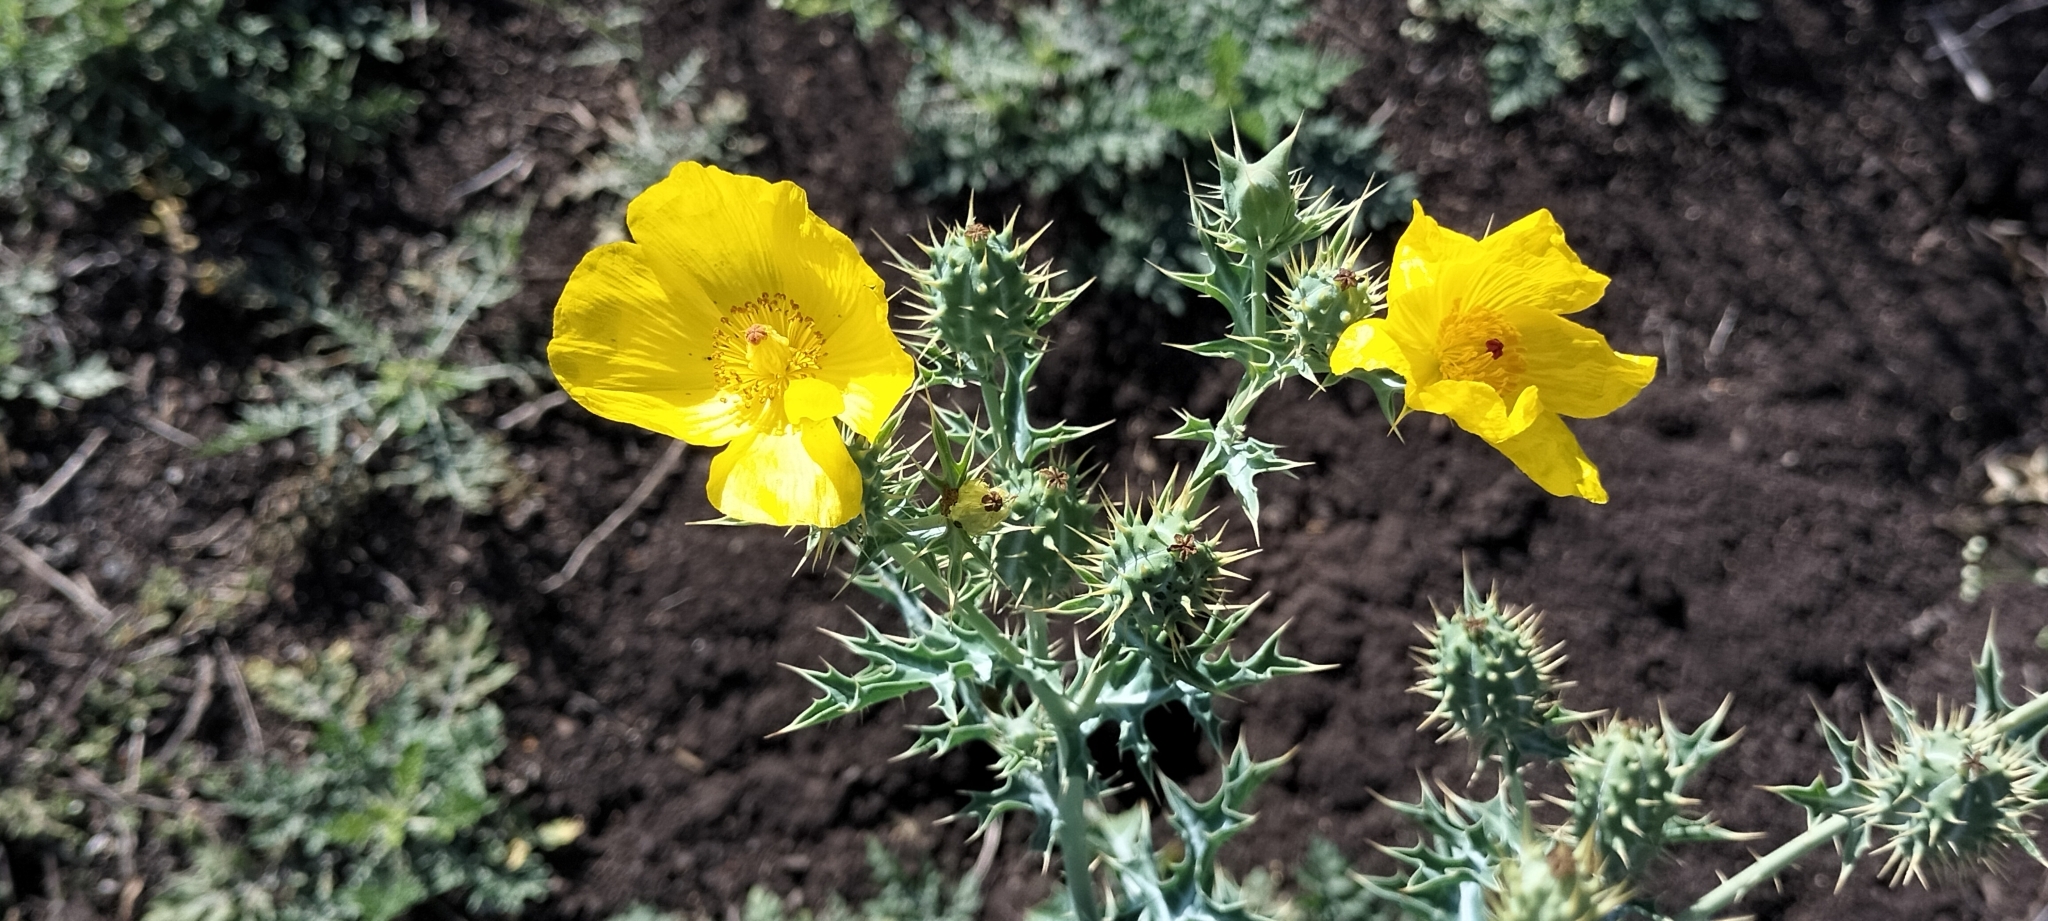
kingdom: Plantae
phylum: Tracheophyta
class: Magnoliopsida
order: Ranunculales
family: Papaveraceae
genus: Argemone
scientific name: Argemone mexicana
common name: Mexican poppy
